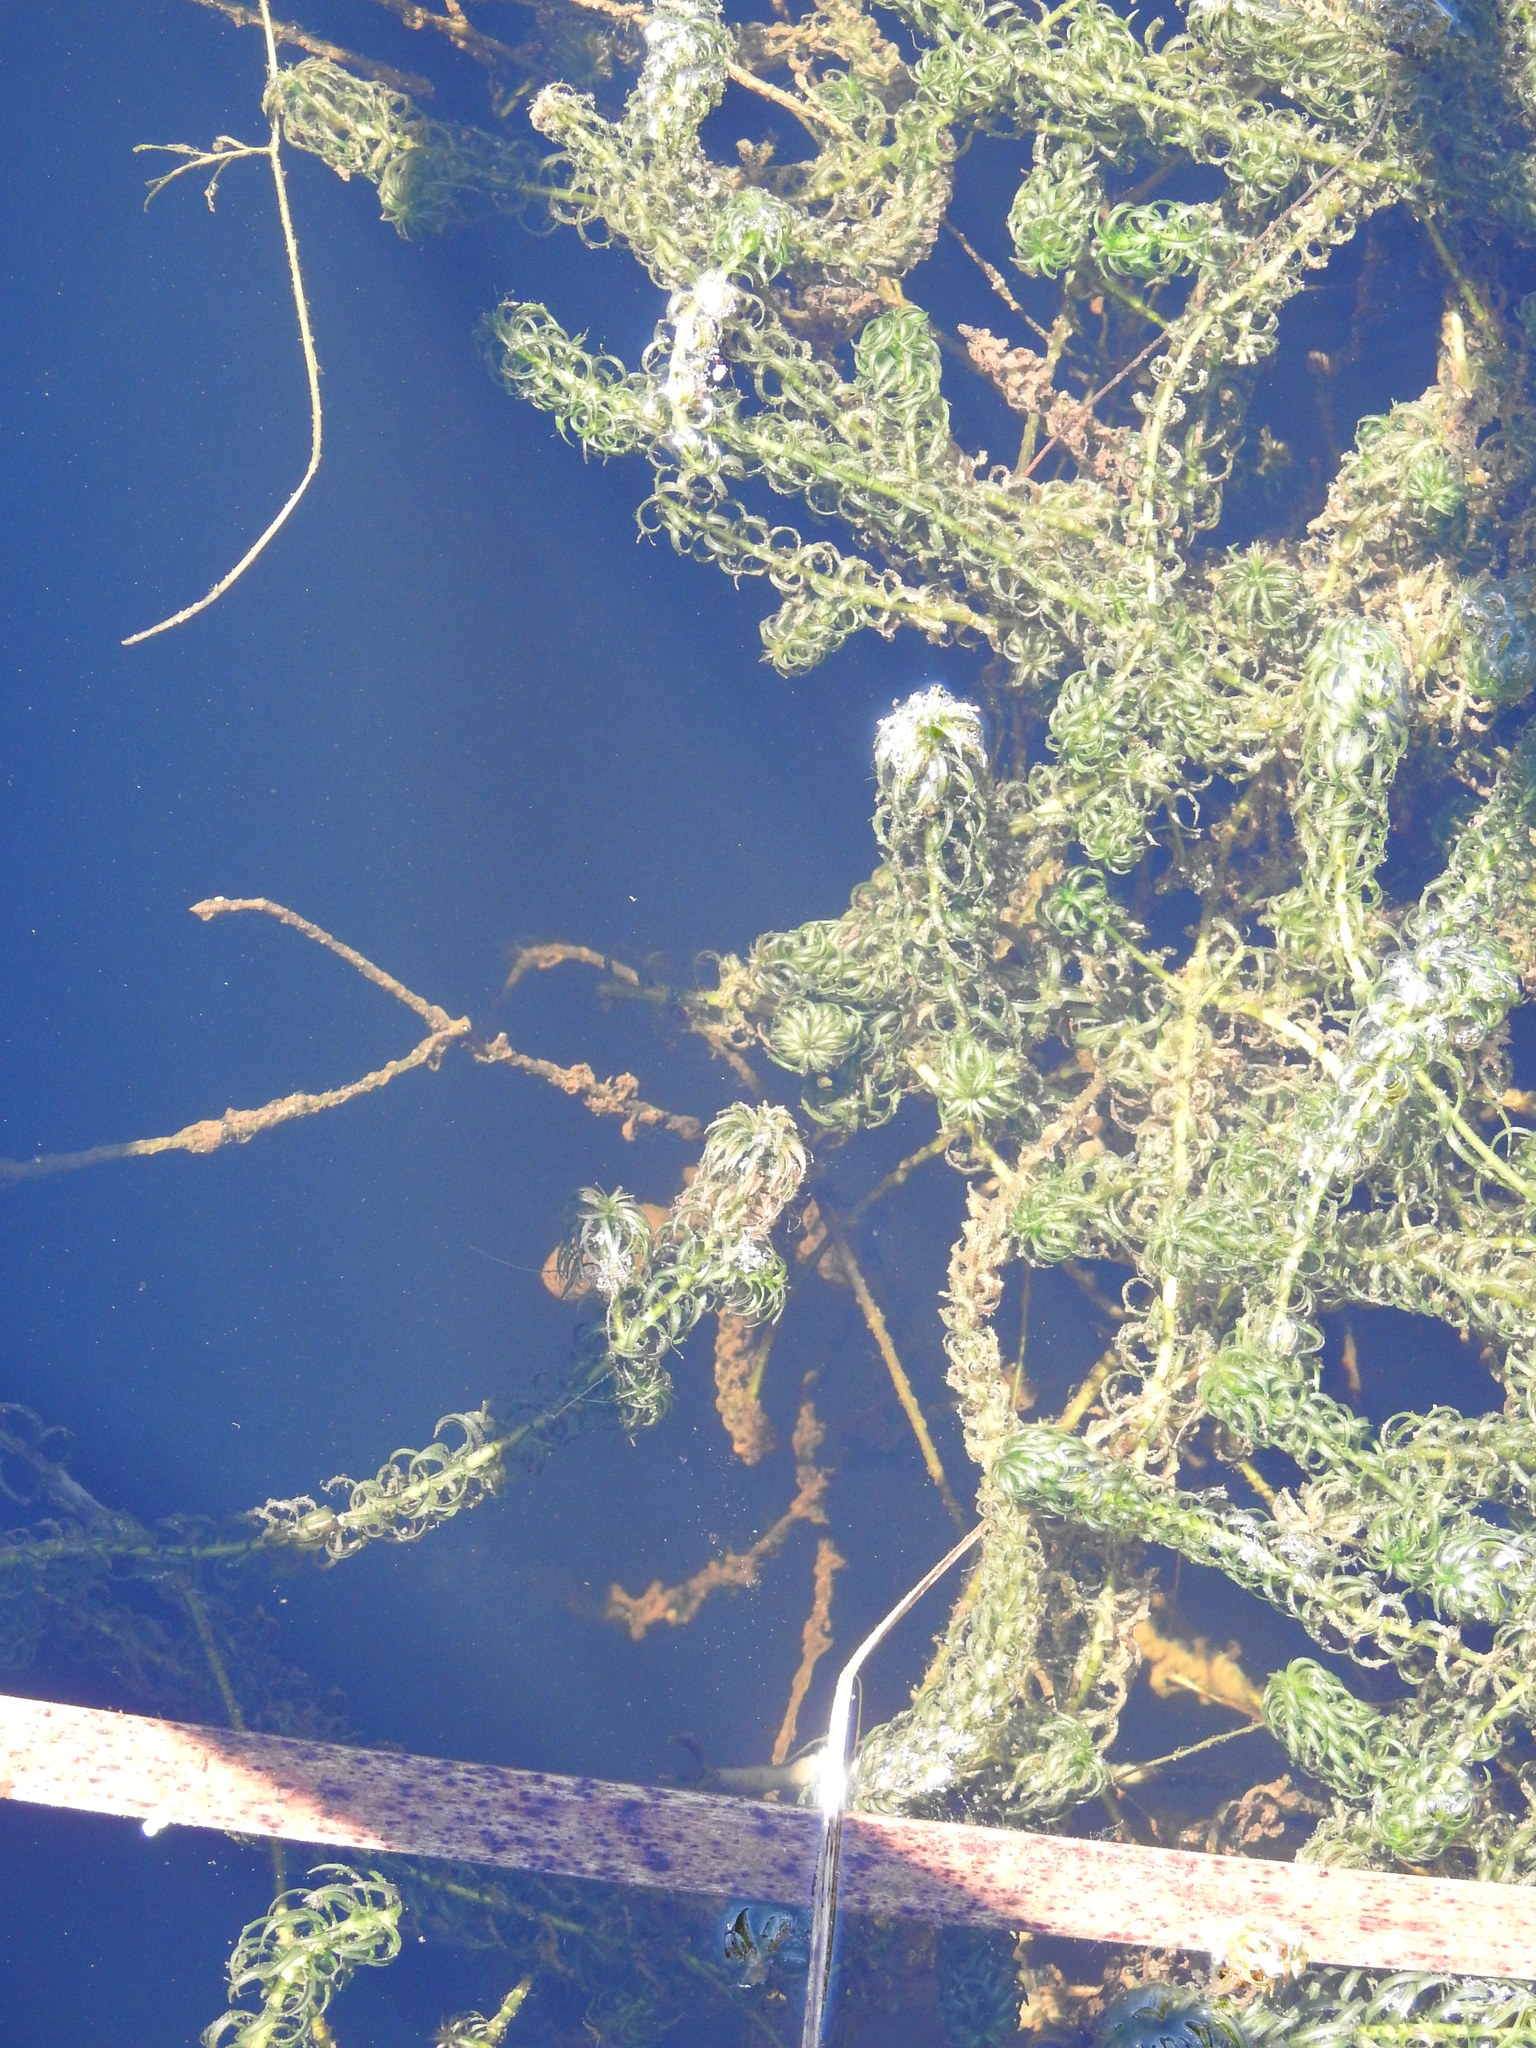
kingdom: Plantae
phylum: Tracheophyta
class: Liliopsida
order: Alismatales
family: Hydrocharitaceae
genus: Lagarosiphon
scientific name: Lagarosiphon major
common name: Curly waterweed
